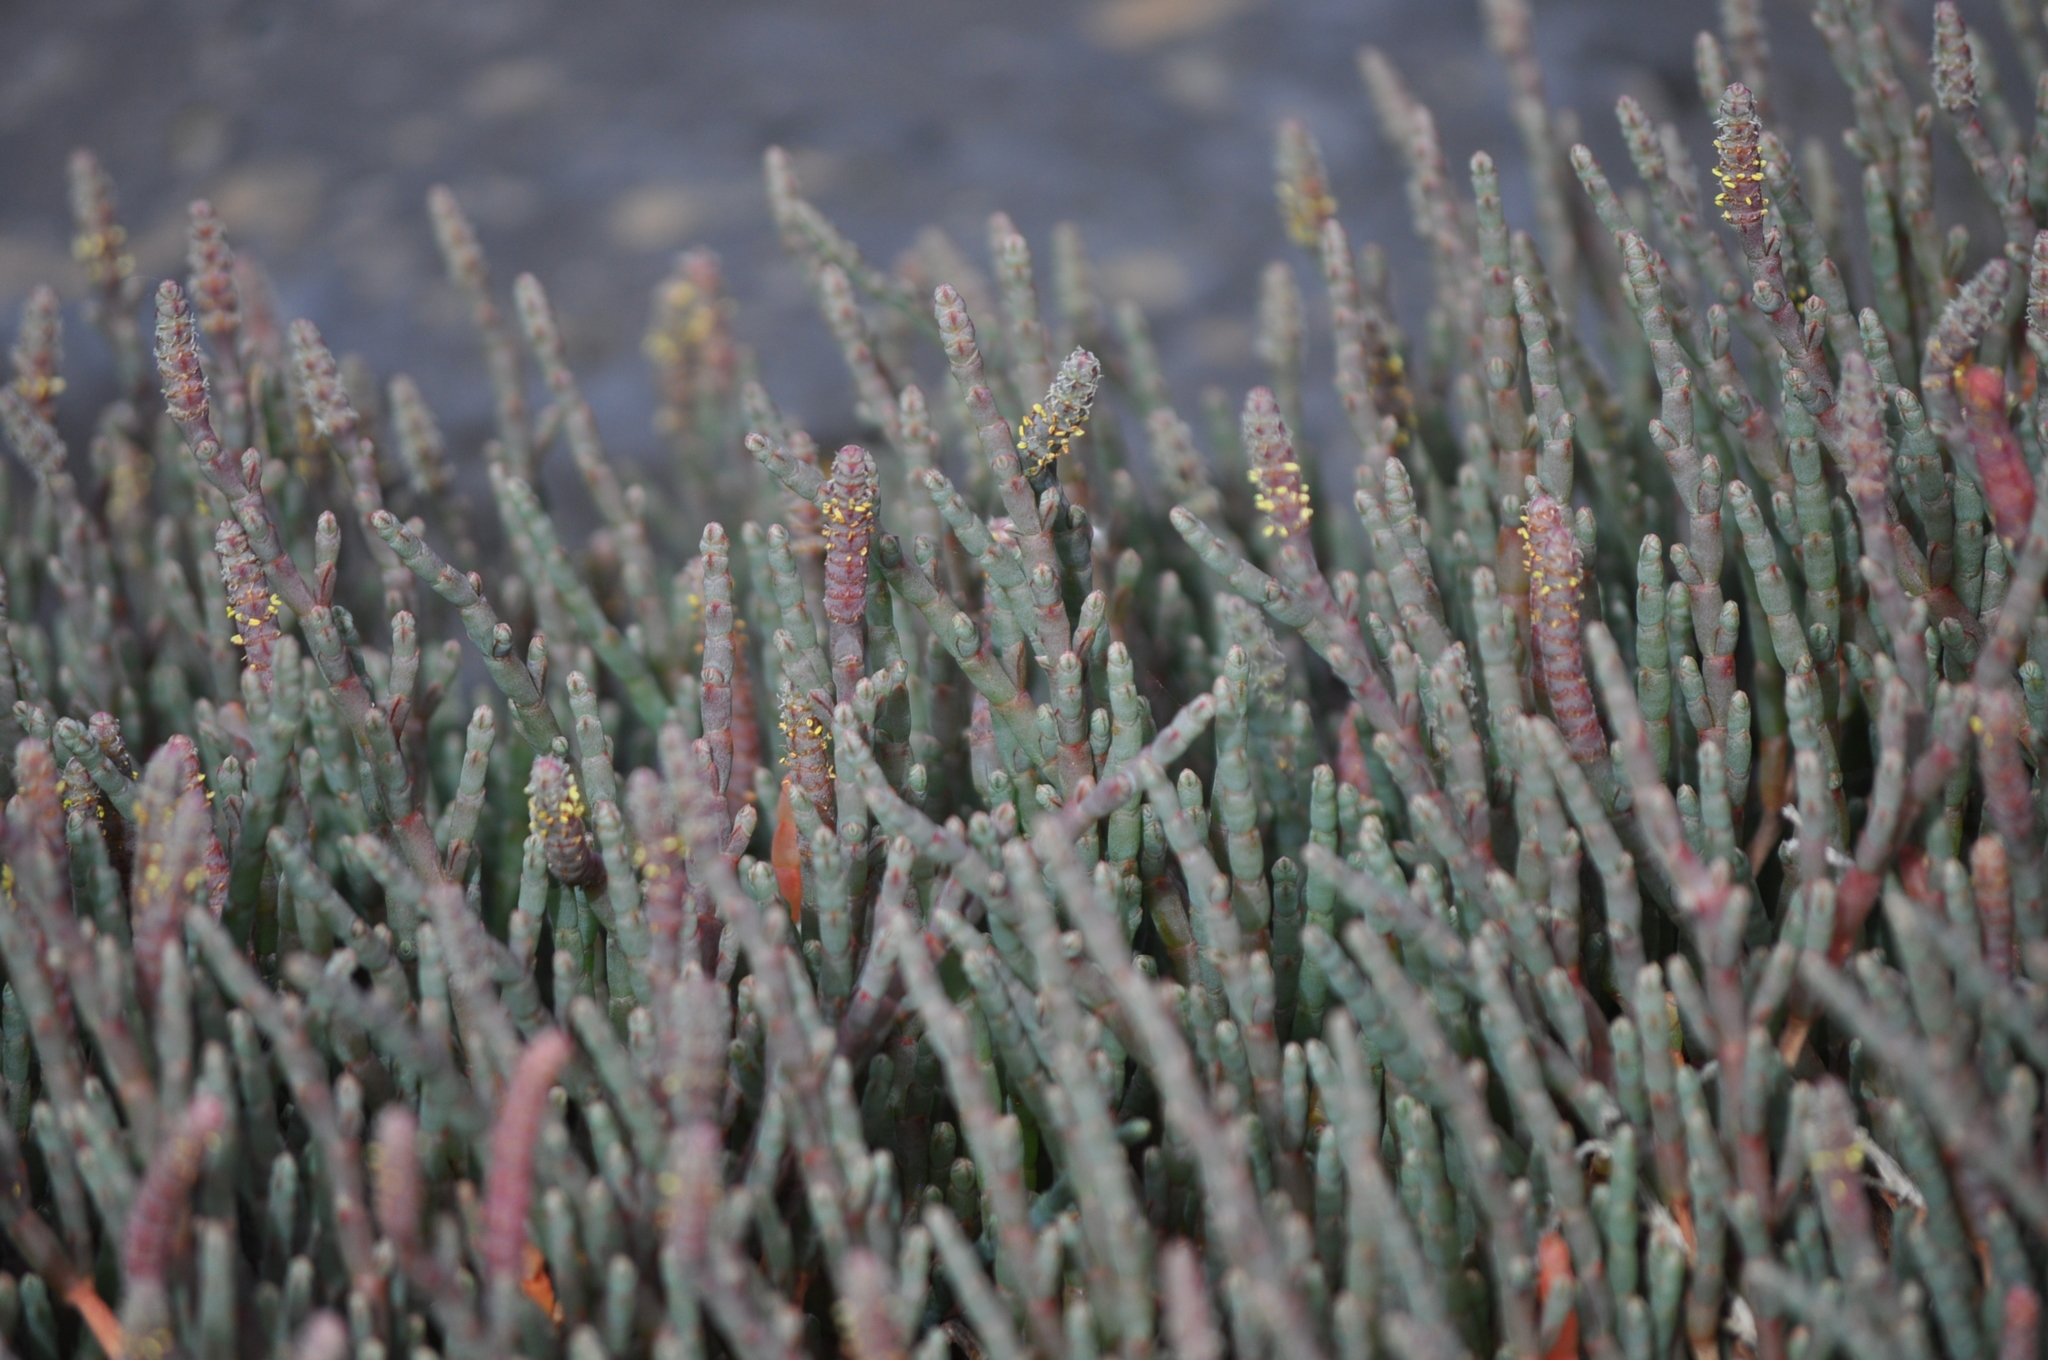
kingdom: Plantae
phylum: Tracheophyta
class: Magnoliopsida
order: Caryophyllales
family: Amaranthaceae
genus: Salicornia
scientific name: Salicornia quinqueflora
